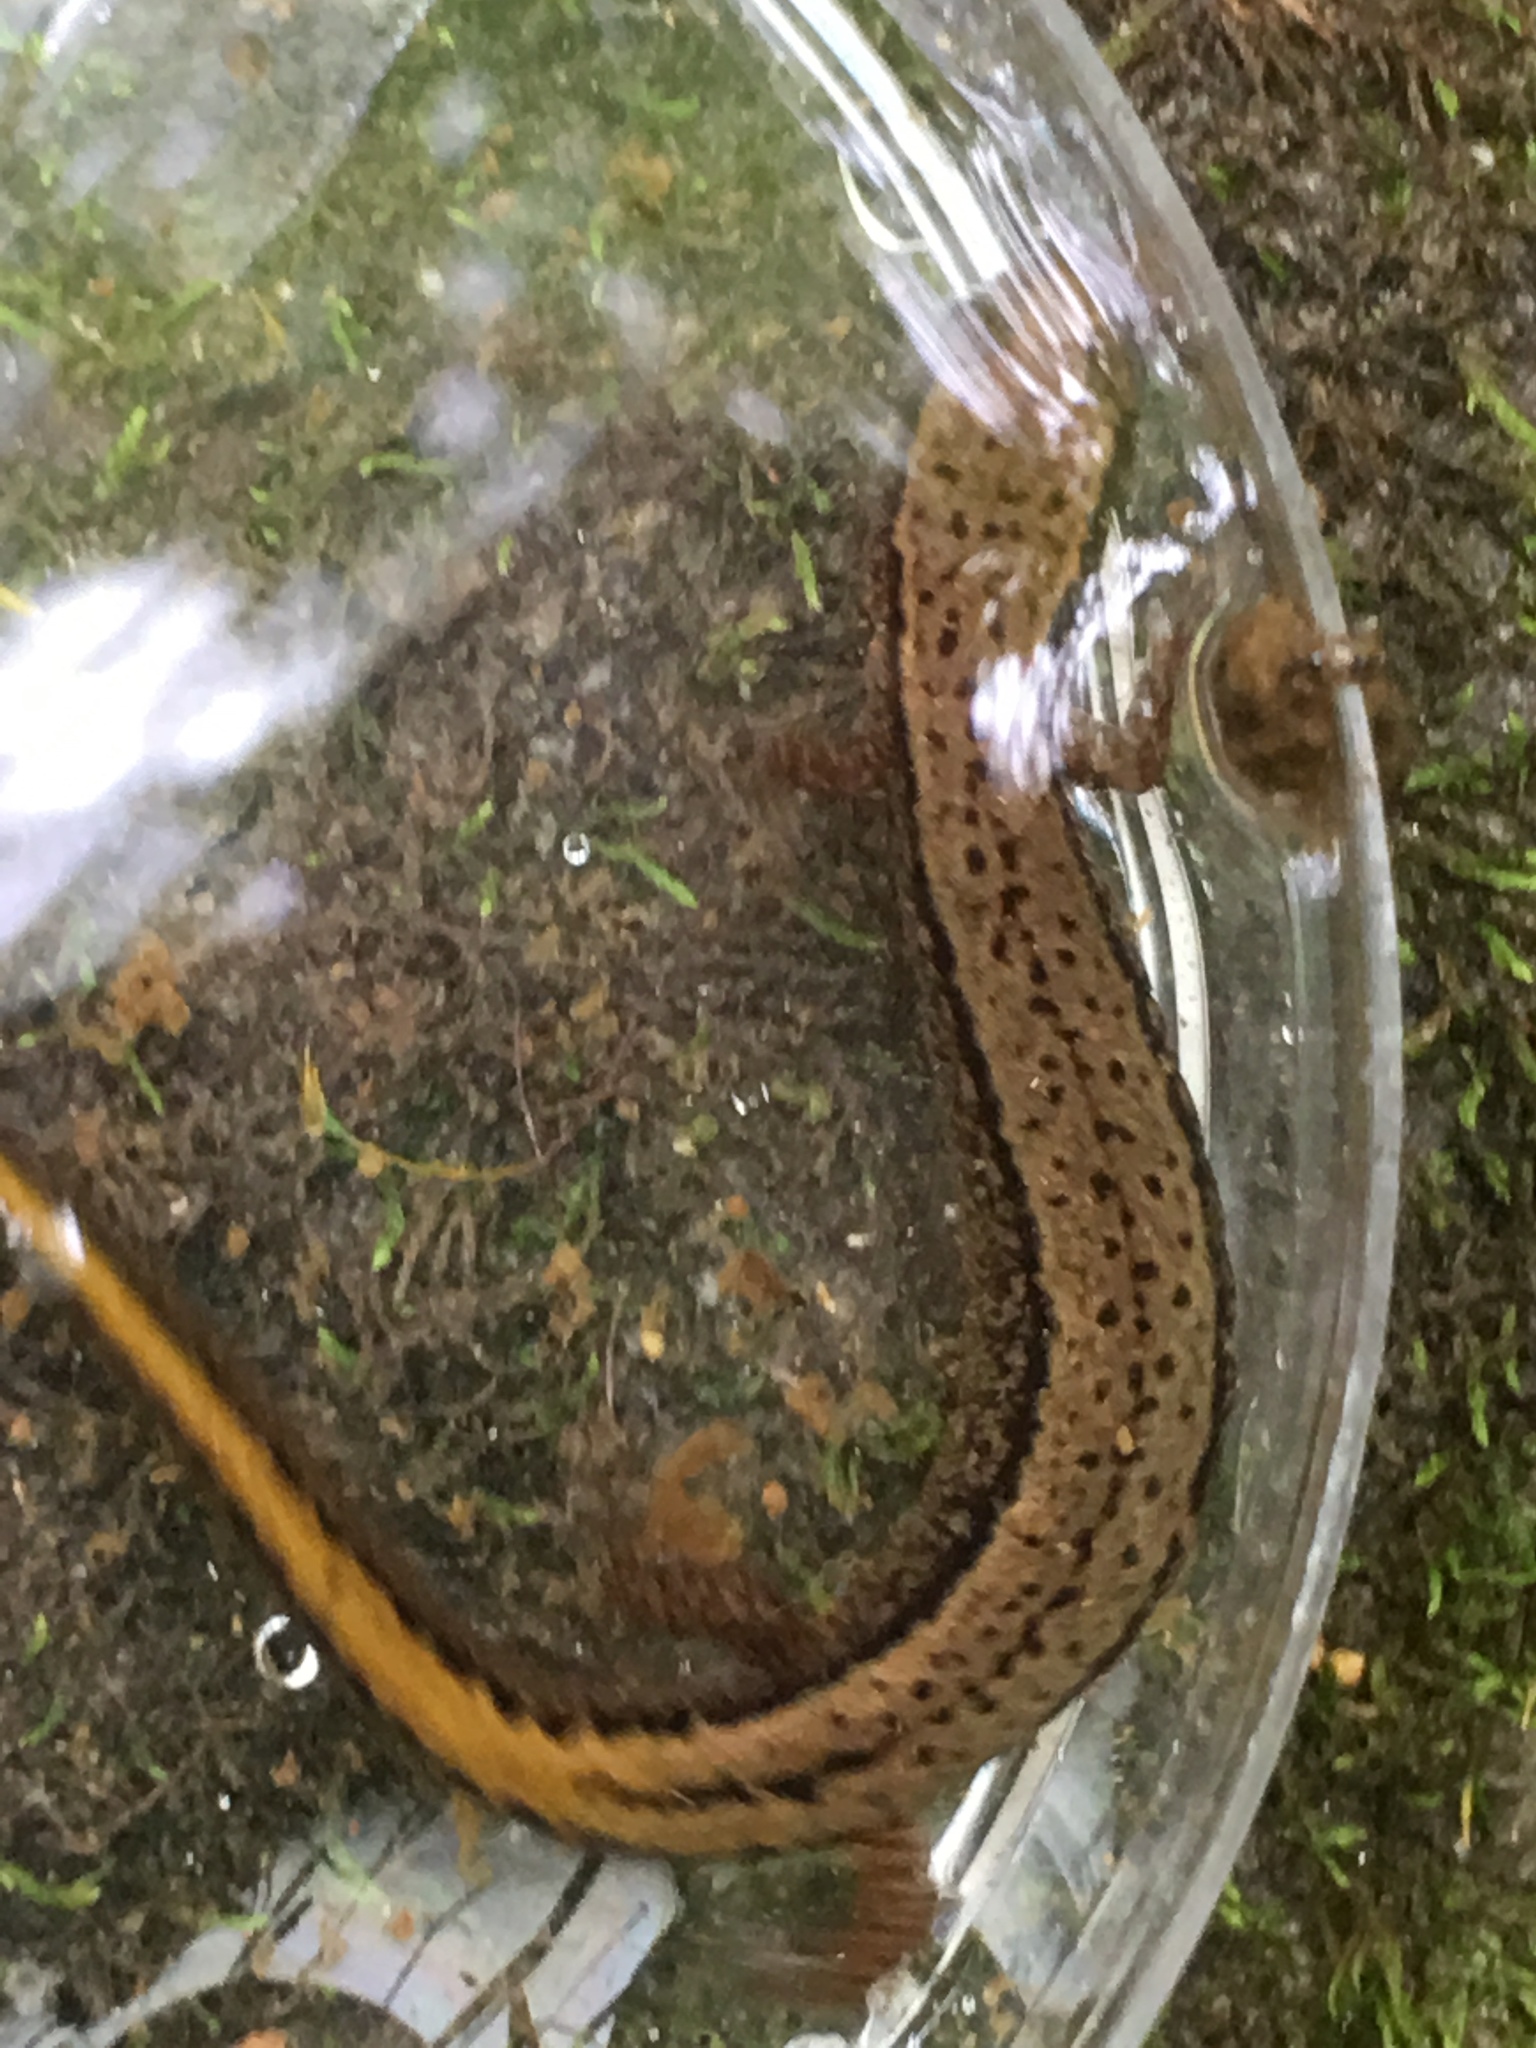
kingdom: Animalia
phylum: Chordata
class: Amphibia
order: Caudata
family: Plethodontidae
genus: Eurycea
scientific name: Eurycea bislineata
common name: Northern two-lined salamander
